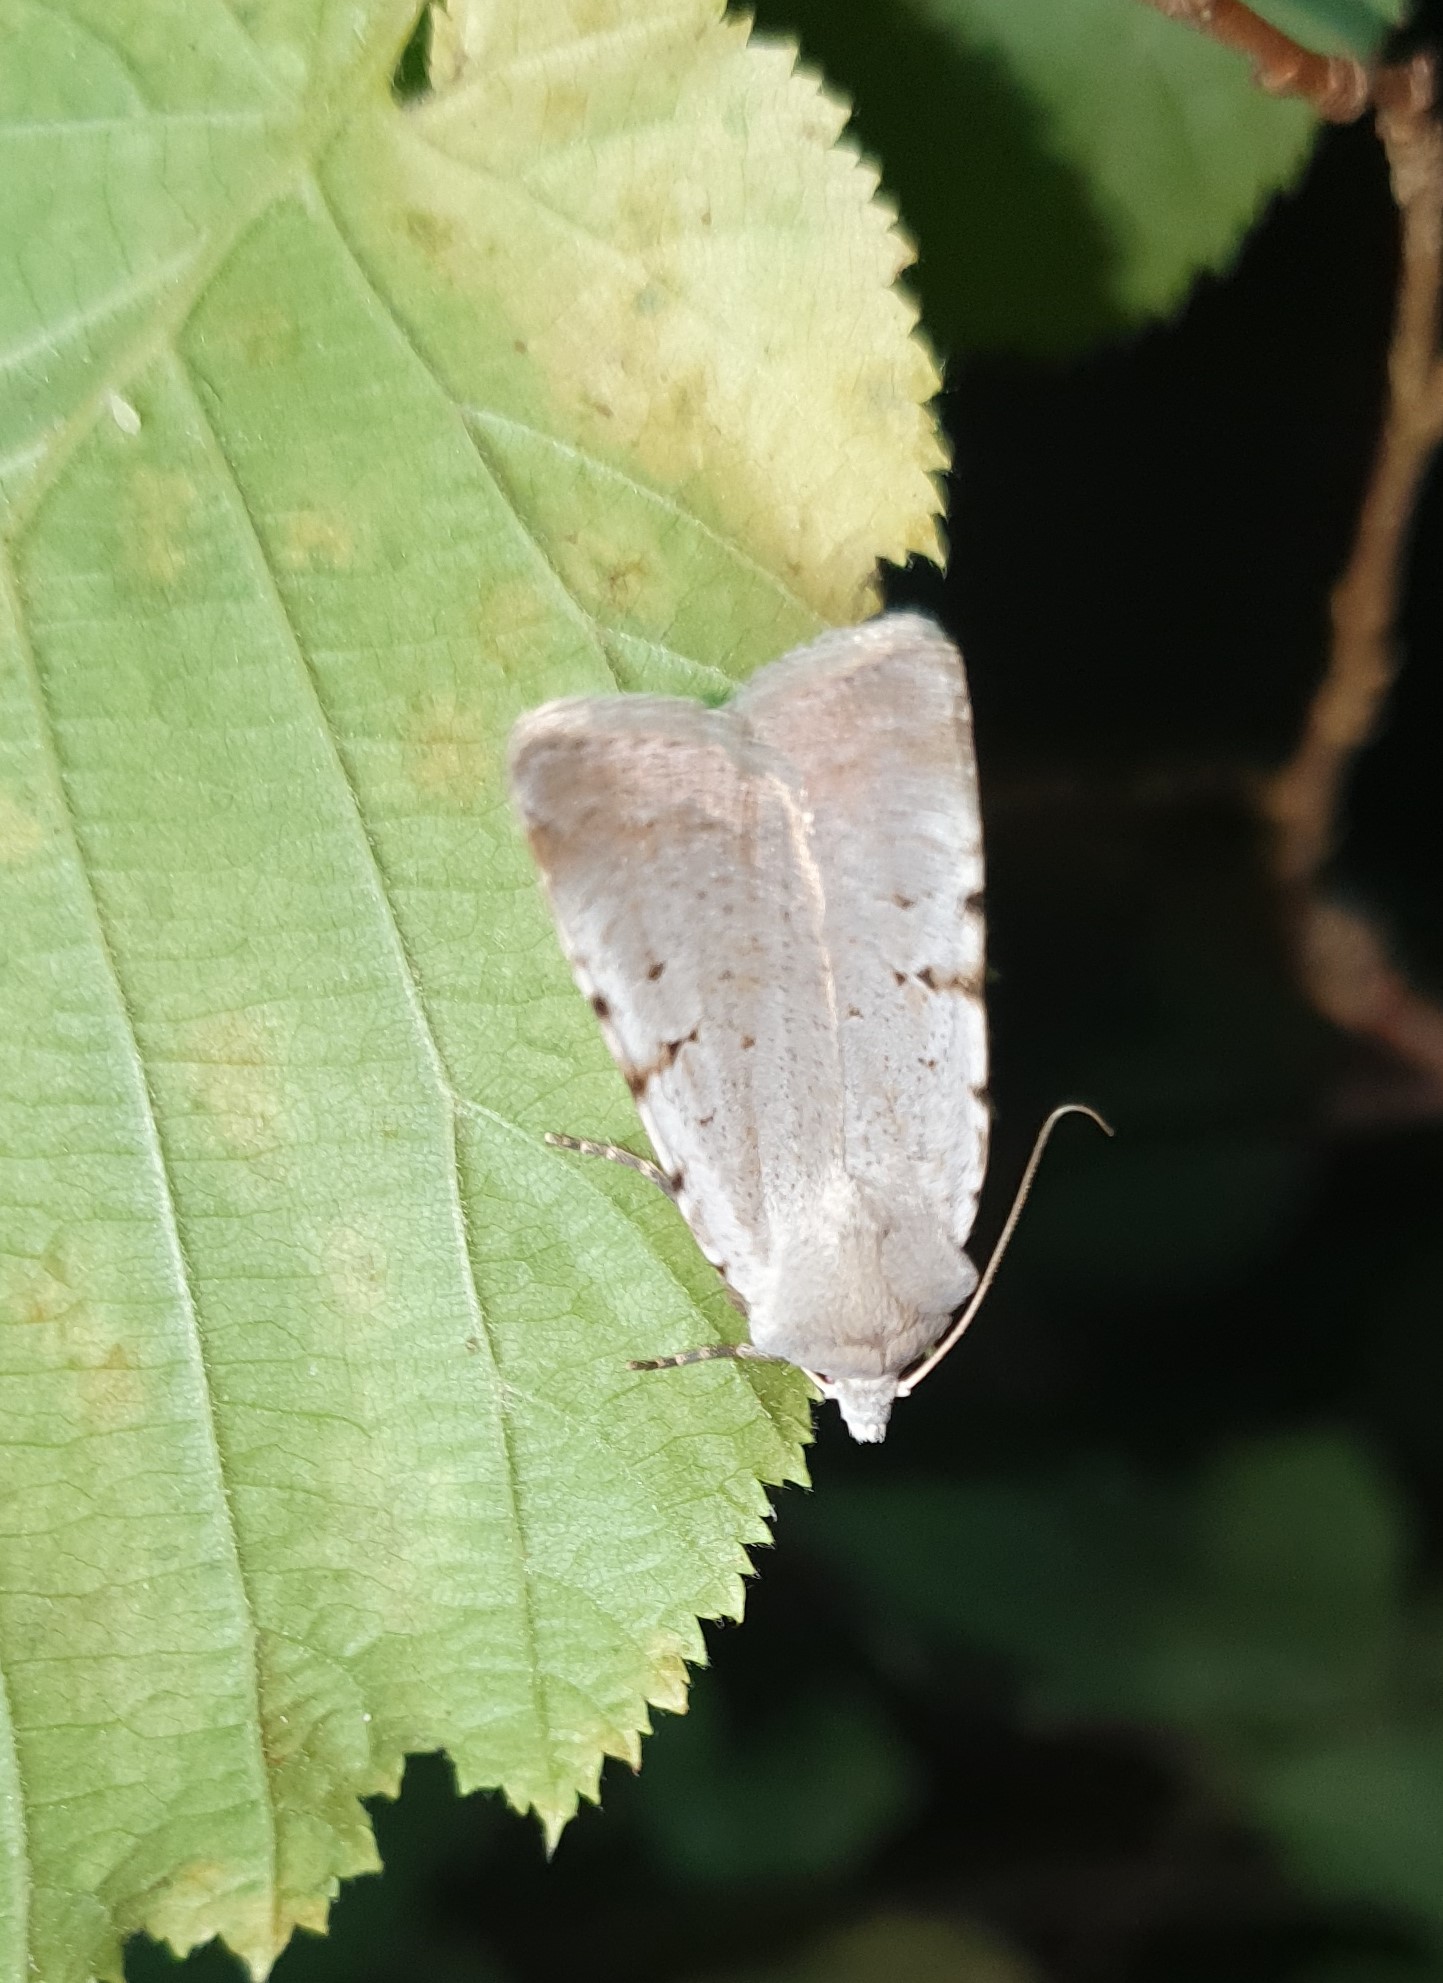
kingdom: Animalia
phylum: Arthropoda
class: Insecta
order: Lepidoptera
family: Noctuidae
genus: Chersotis
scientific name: Chersotis margaritacea
